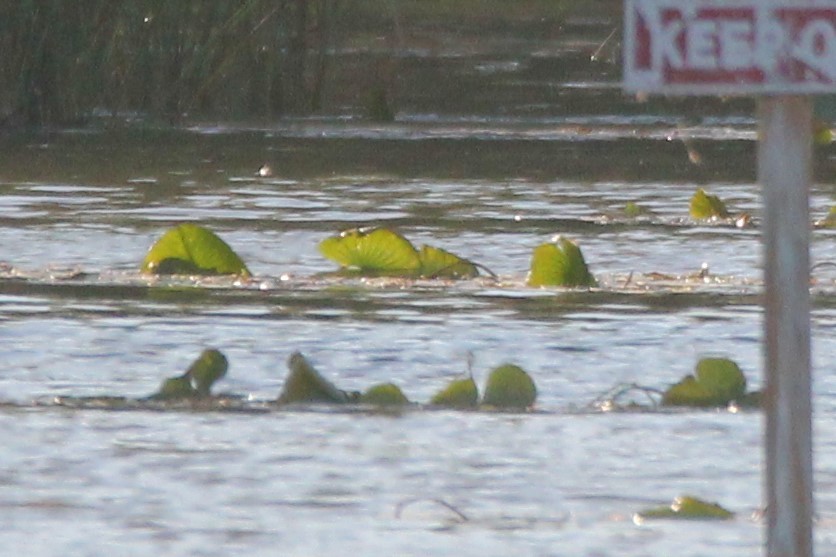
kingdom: Plantae
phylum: Tracheophyta
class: Magnoliopsida
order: Proteales
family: Nelumbonaceae
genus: Nelumbo
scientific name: Nelumbo lutea
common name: American lotus
